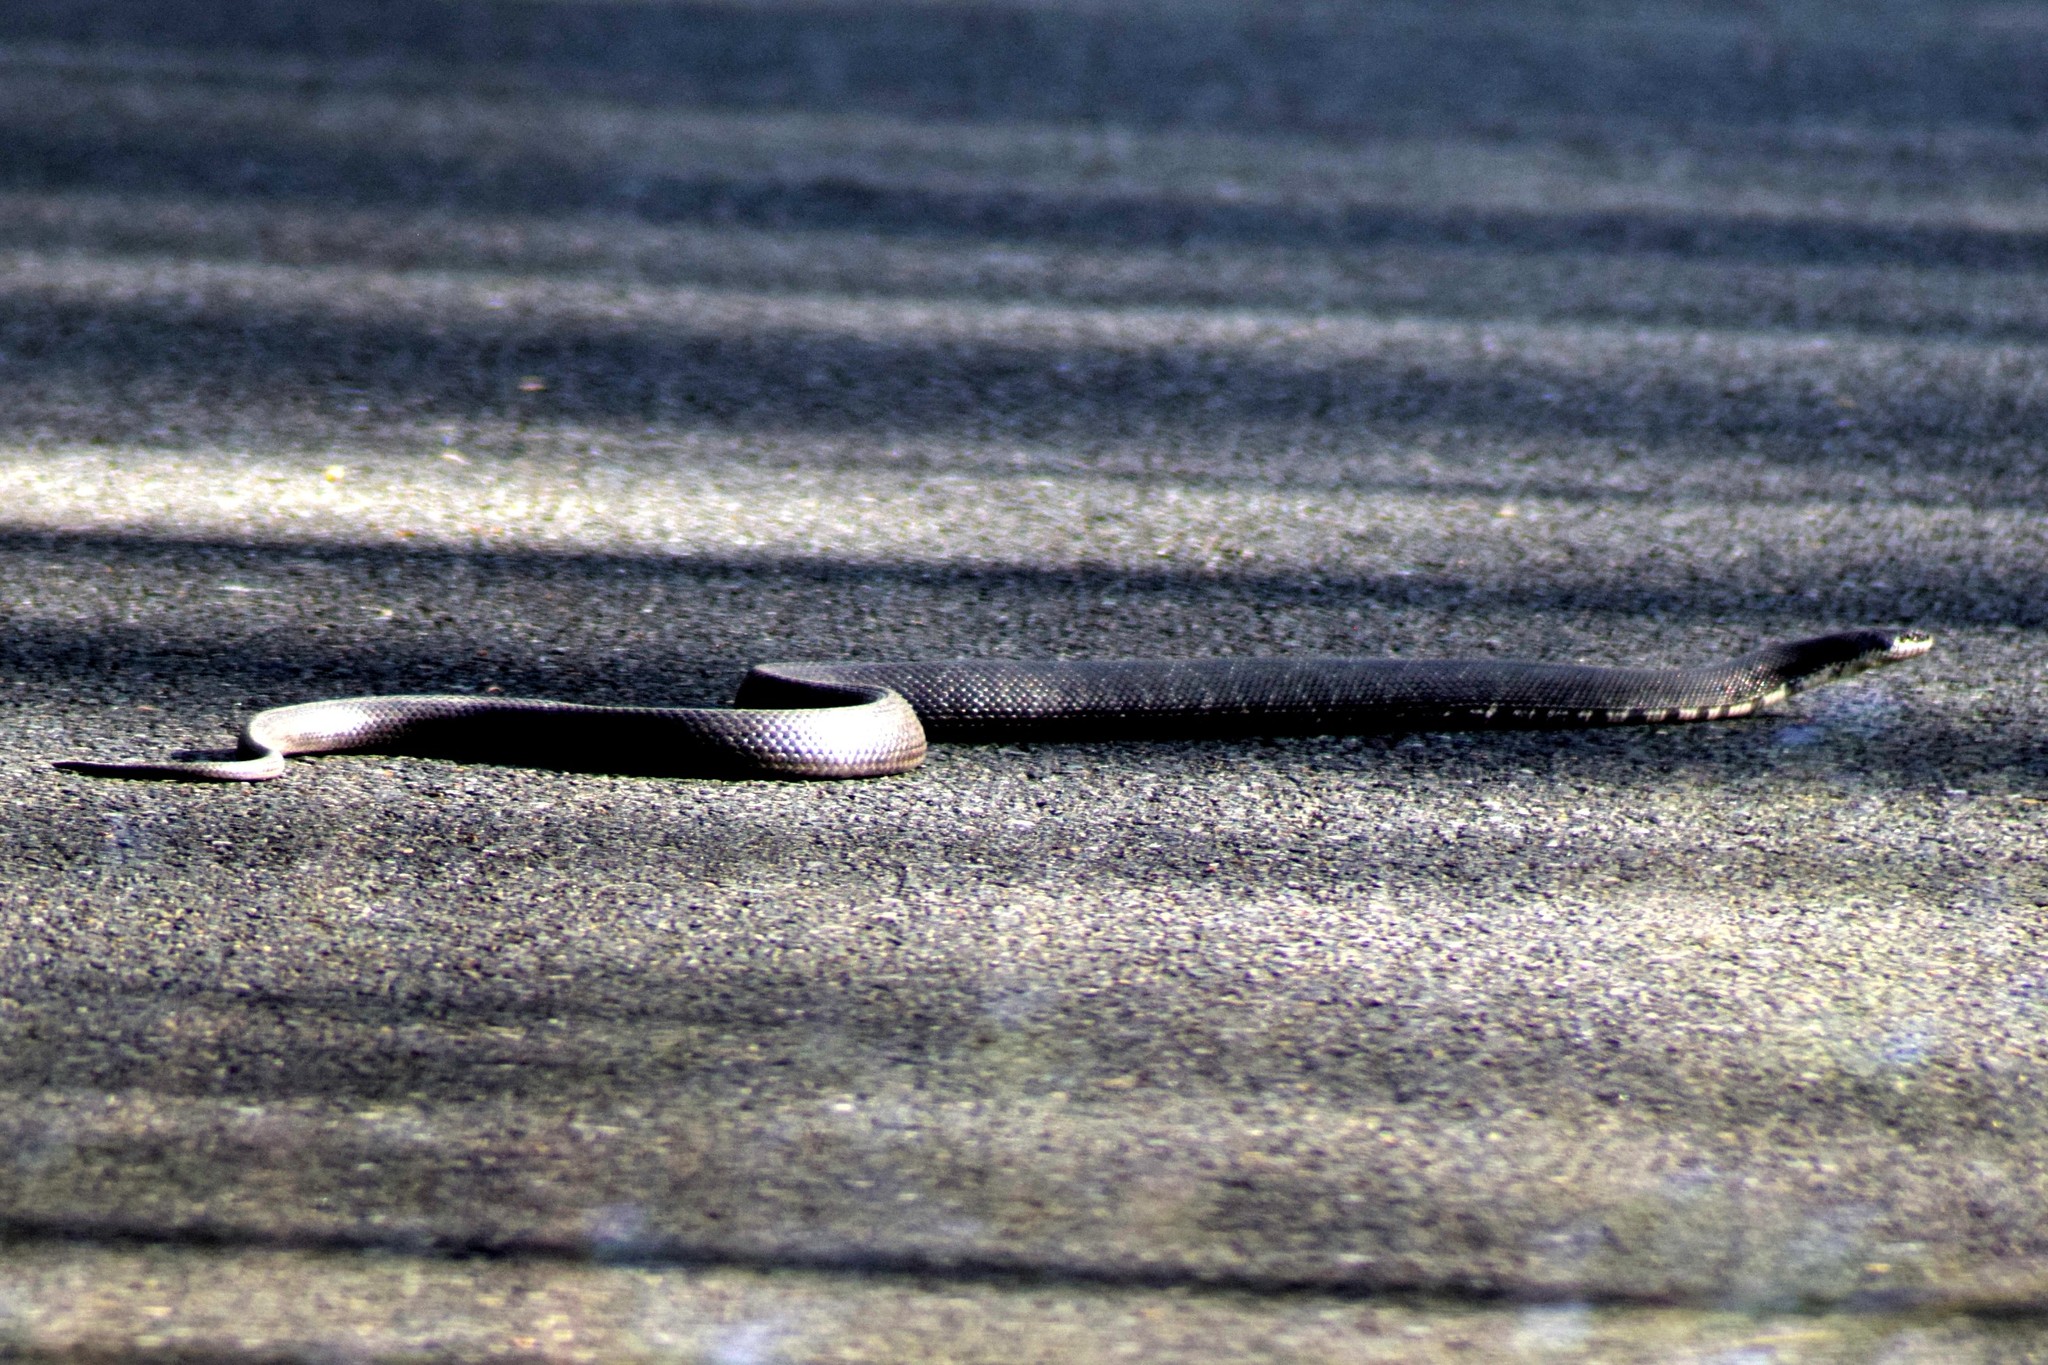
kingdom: Animalia
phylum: Chordata
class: Squamata
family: Colubridae
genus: Pantherophis
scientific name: Pantherophis alleghaniensis
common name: Eastern rat snake
